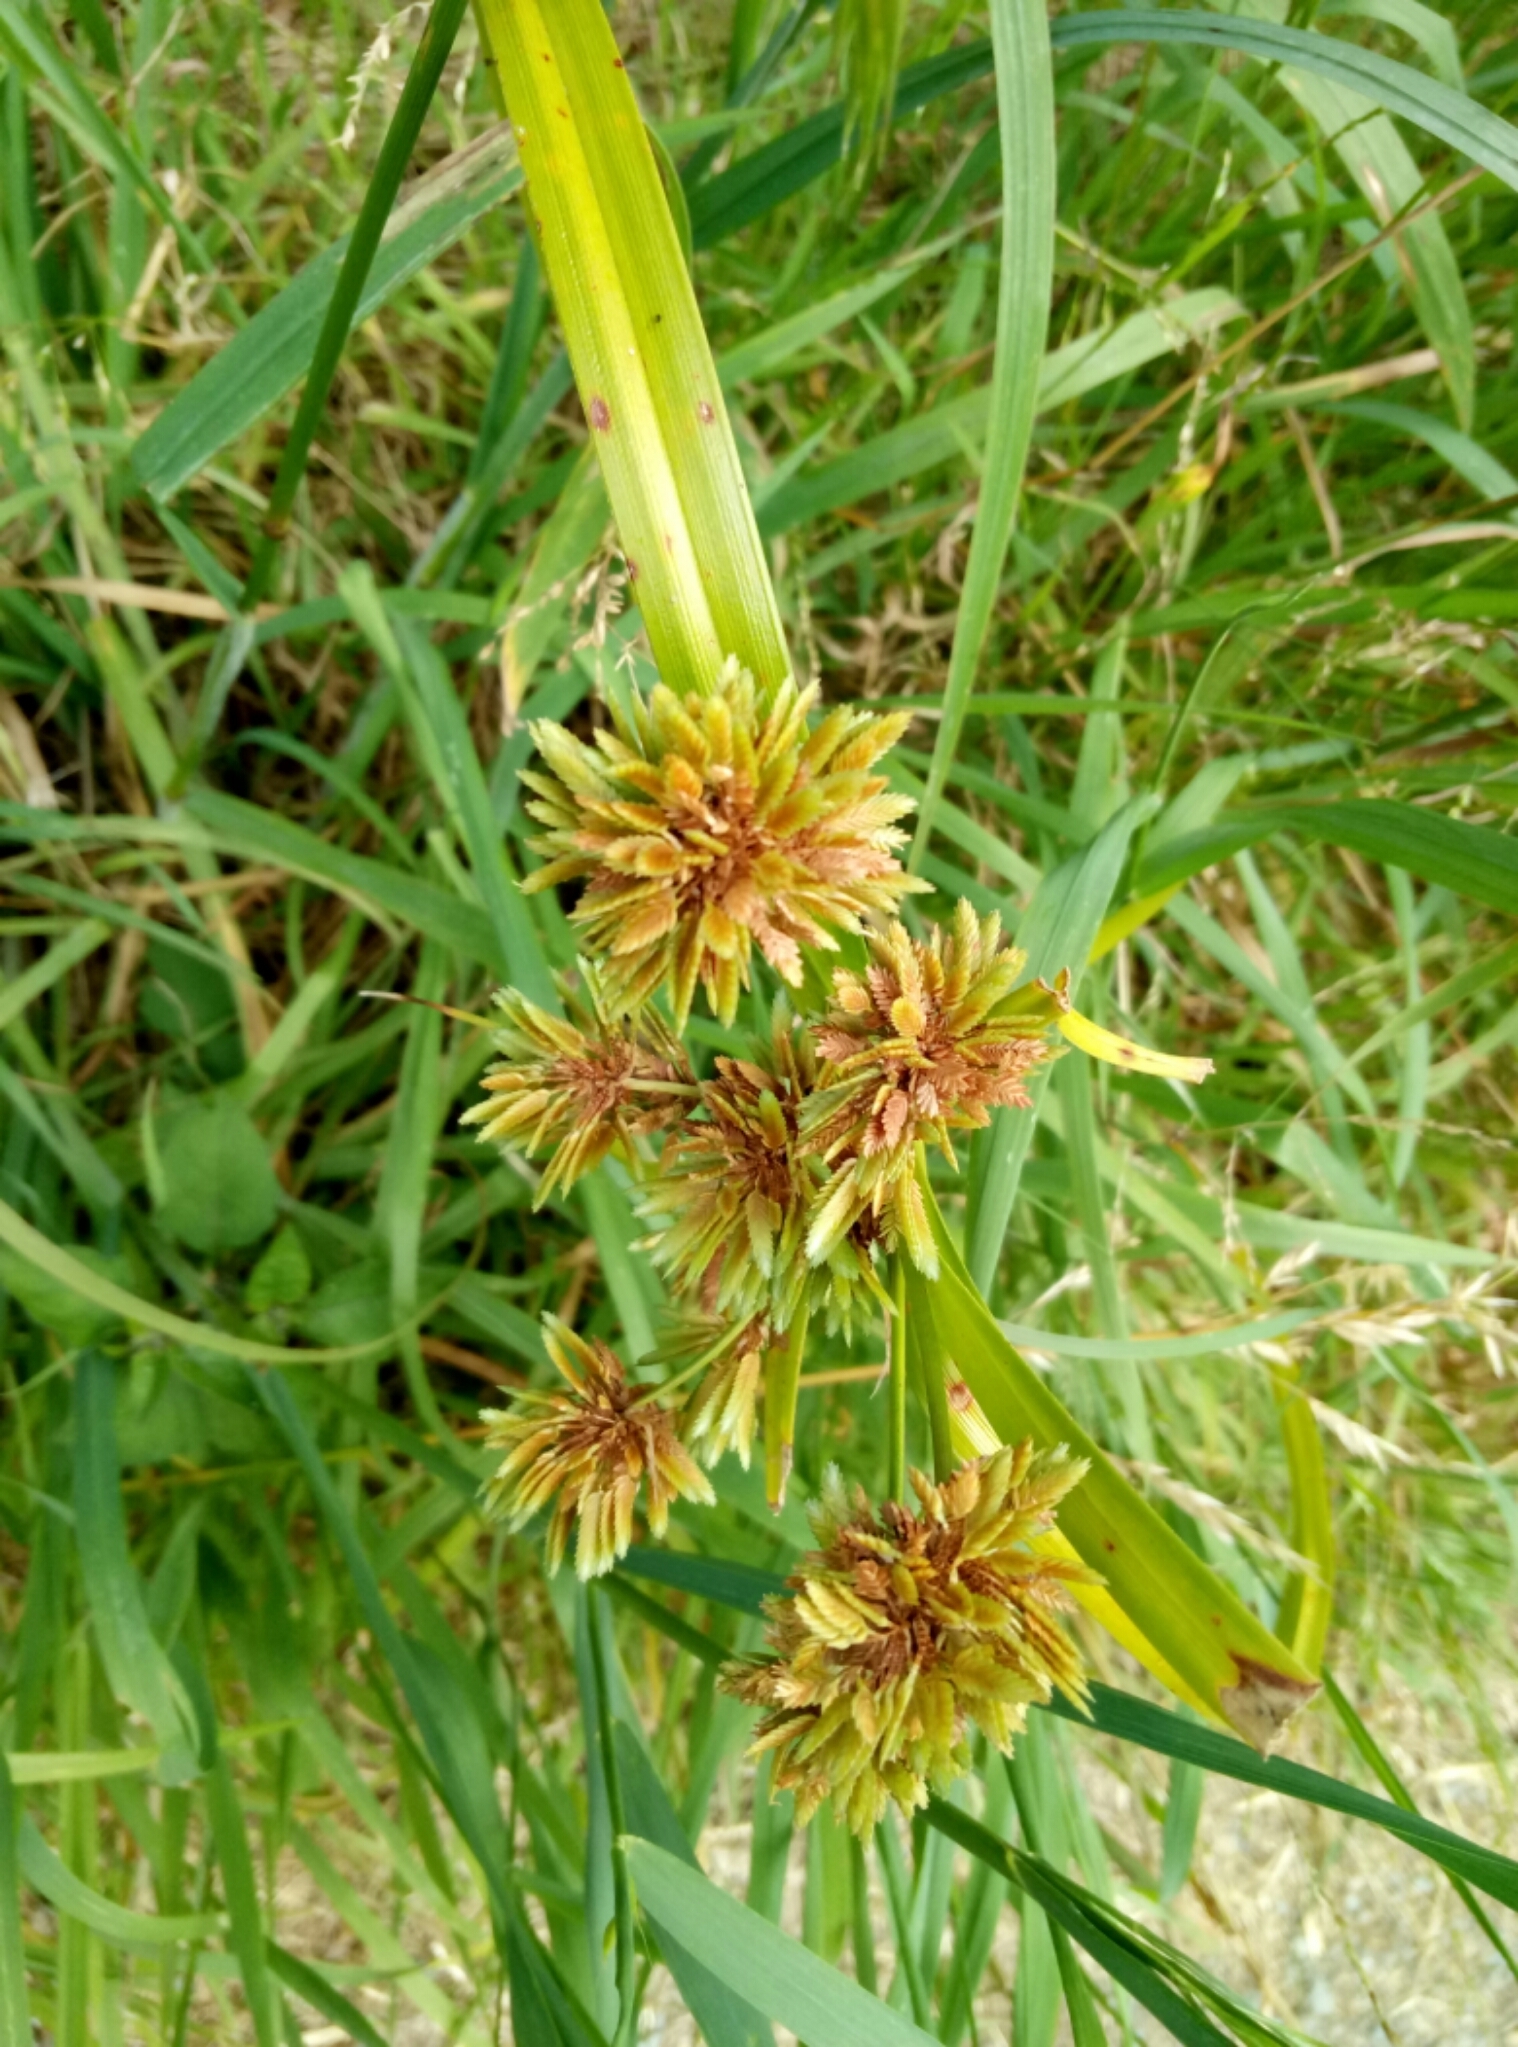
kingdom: Plantae
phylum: Tracheophyta
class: Liliopsida
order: Poales
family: Cyperaceae
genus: Cyperus
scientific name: Cyperus eragrostis
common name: Tall flatsedge
